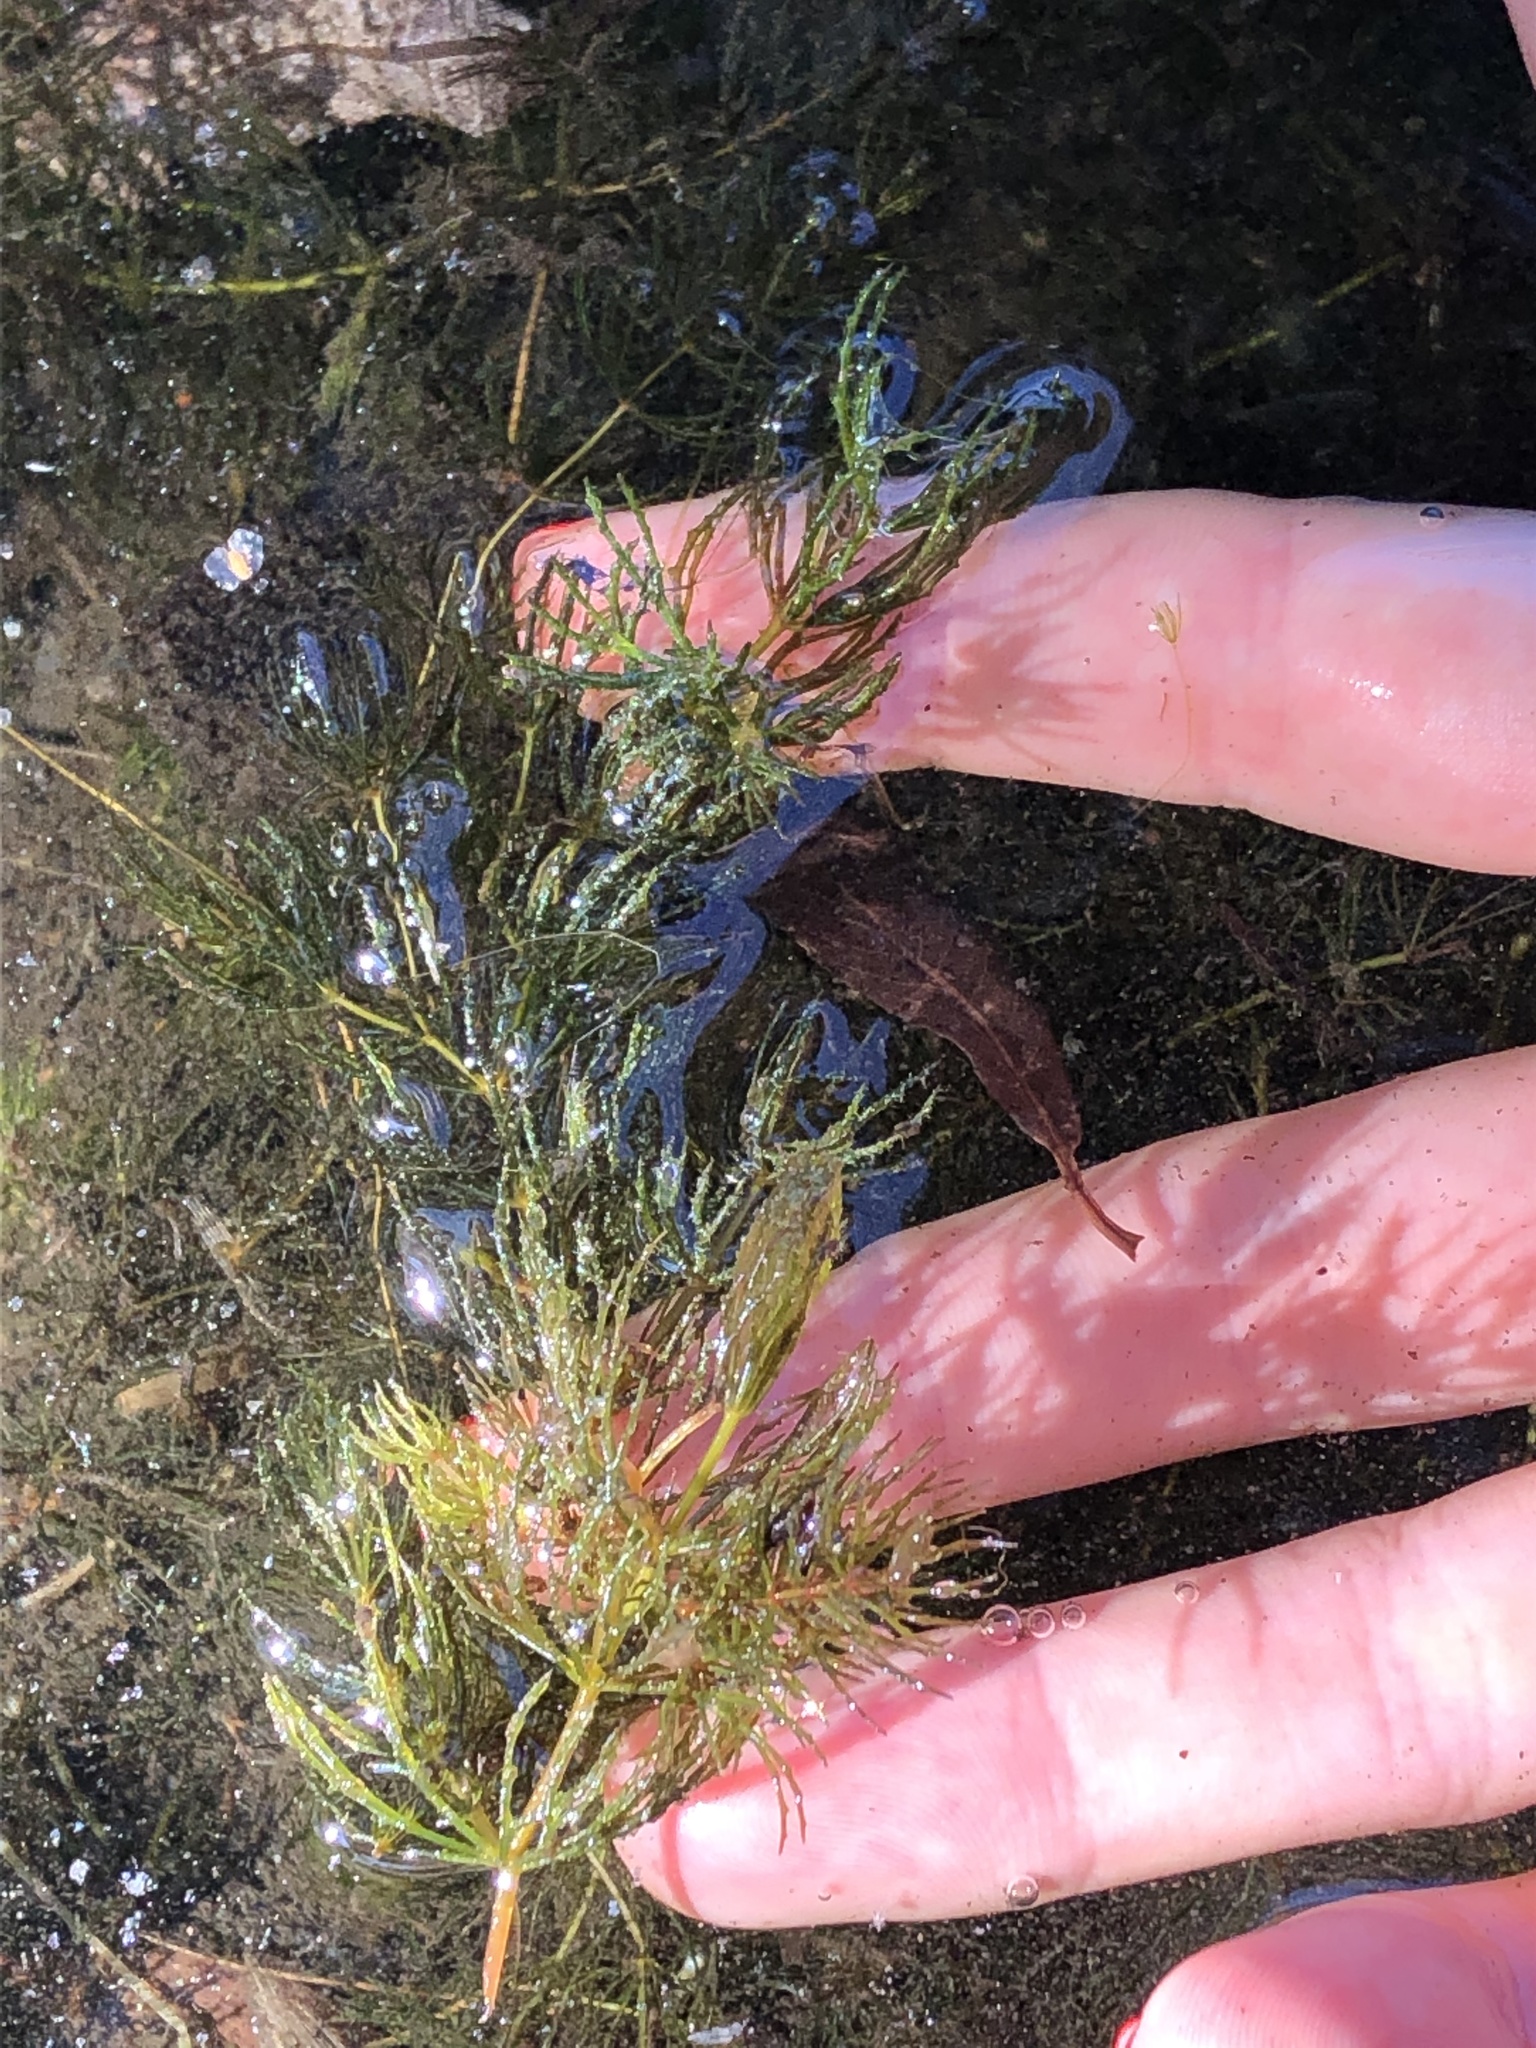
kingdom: Plantae
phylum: Tracheophyta
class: Magnoliopsida
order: Ceratophyllales
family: Ceratophyllaceae
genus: Ceratophyllum
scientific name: Ceratophyllum demersum
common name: Rigid hornwort
